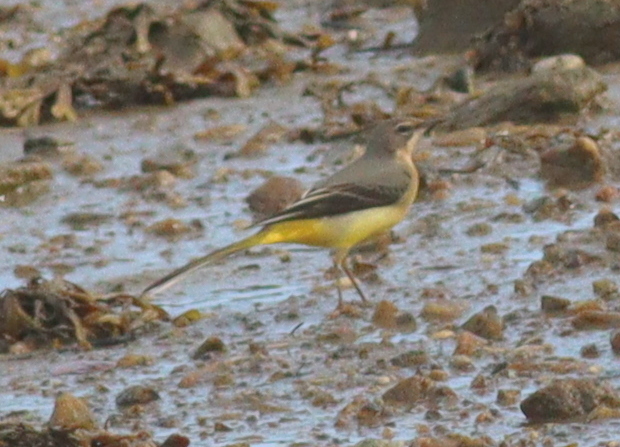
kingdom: Animalia
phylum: Chordata
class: Aves
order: Passeriformes
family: Motacillidae
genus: Motacilla
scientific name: Motacilla cinerea
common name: Grey wagtail
